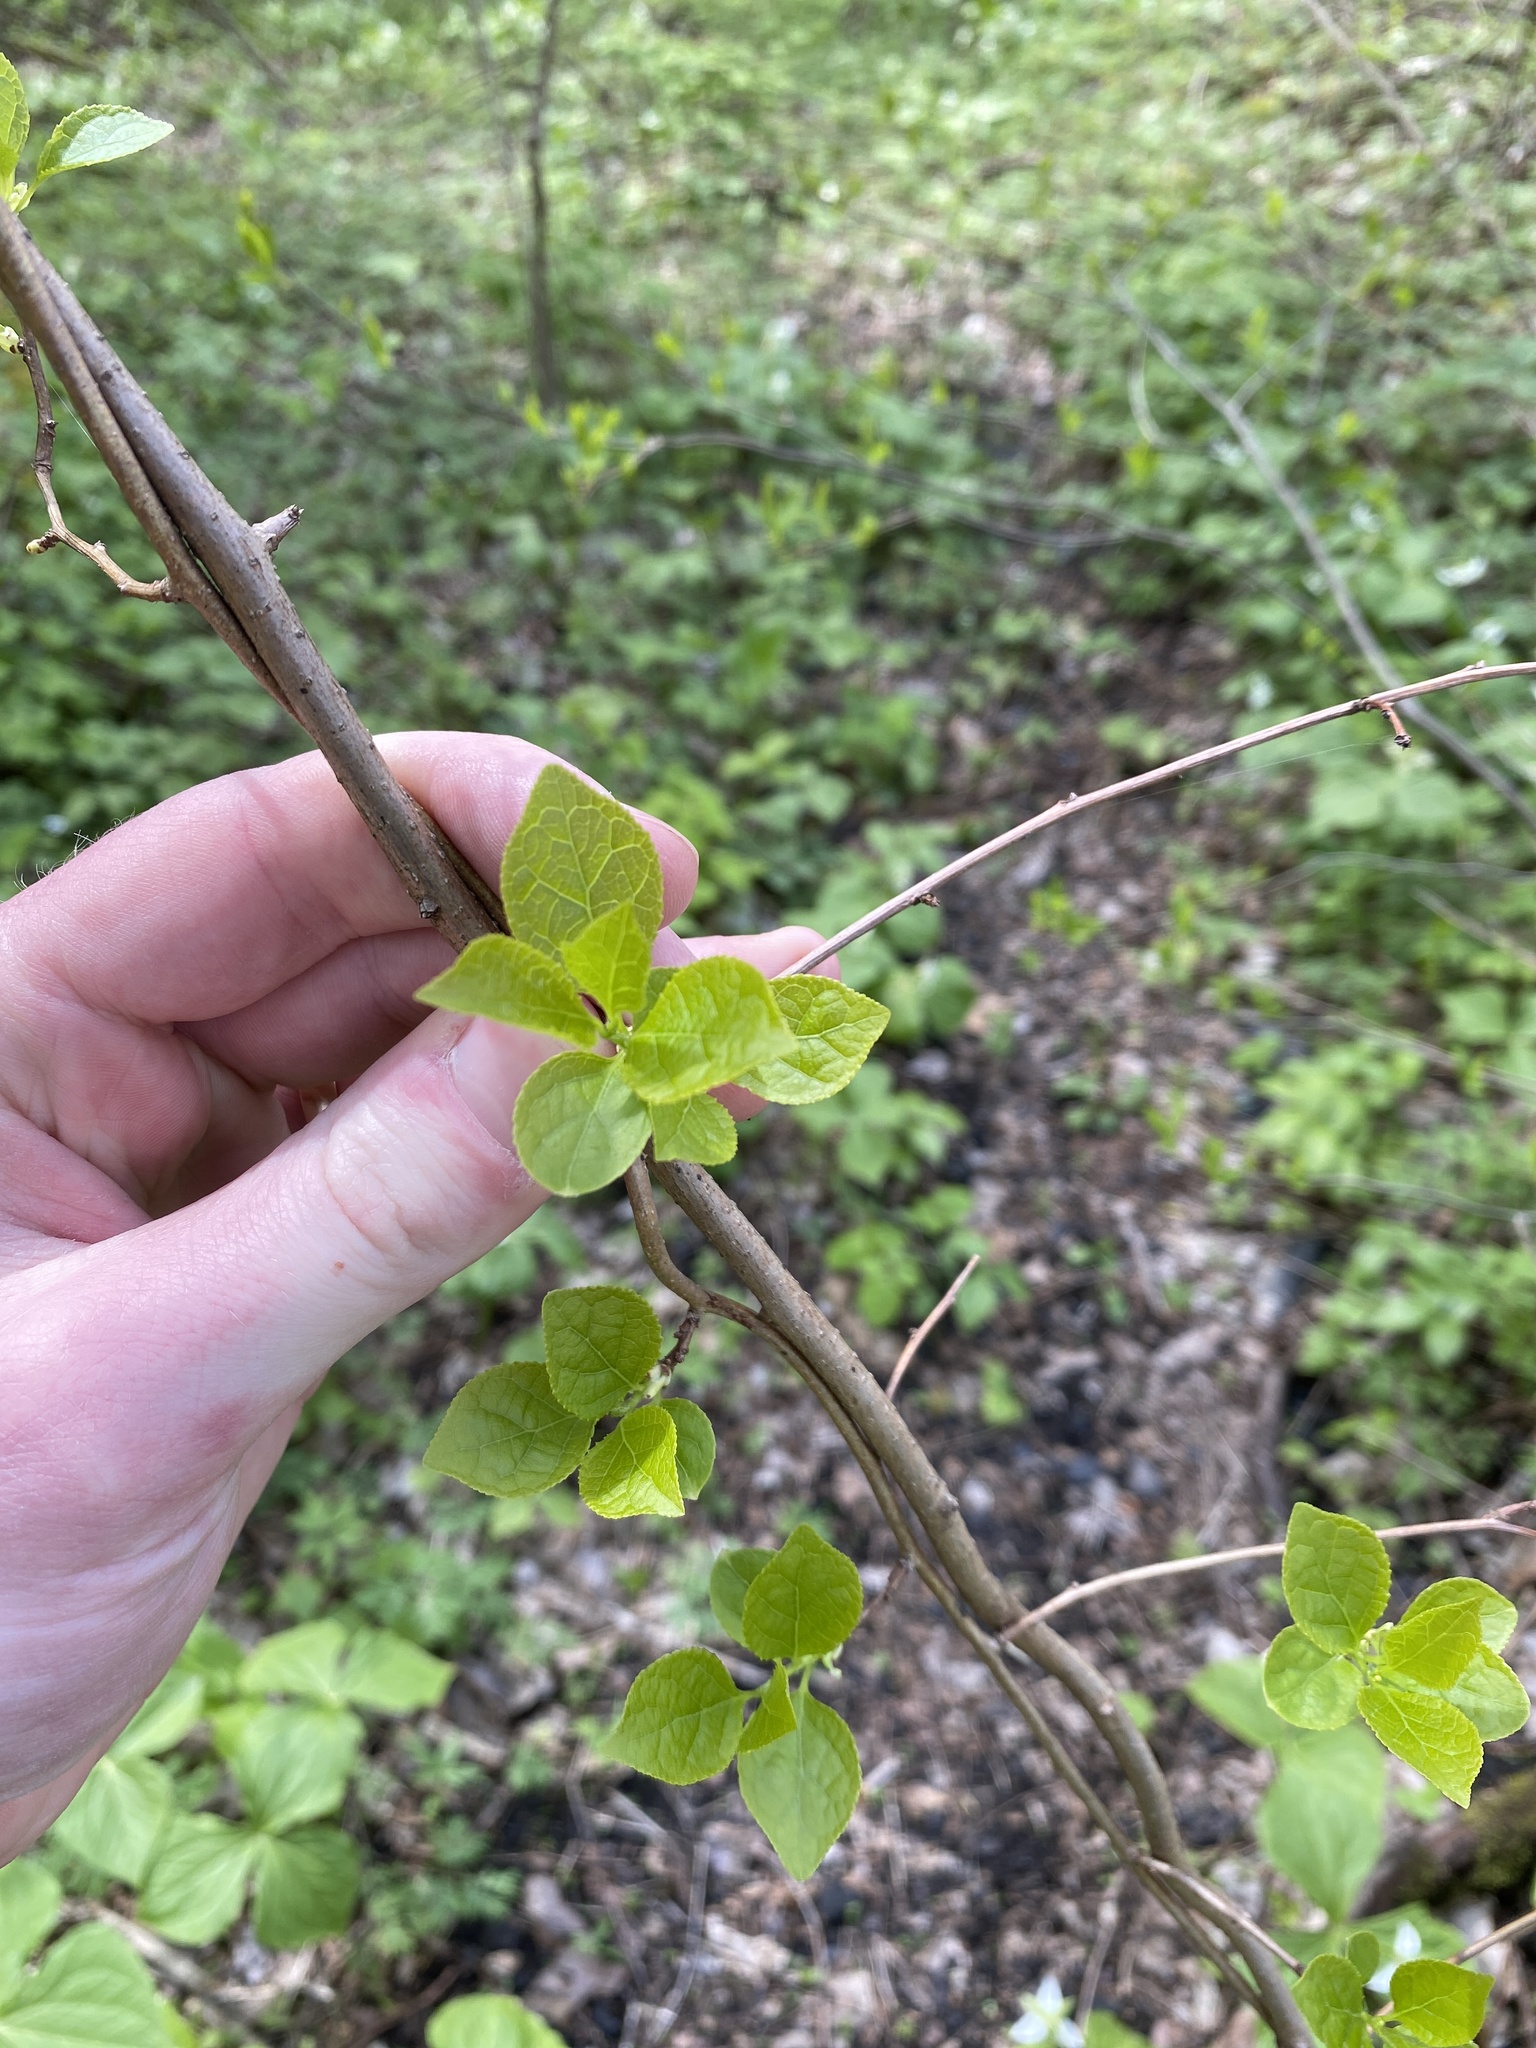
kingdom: Plantae
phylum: Tracheophyta
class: Magnoliopsida
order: Celastrales
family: Celastraceae
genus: Celastrus
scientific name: Celastrus orbiculatus
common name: Oriental bittersweet
